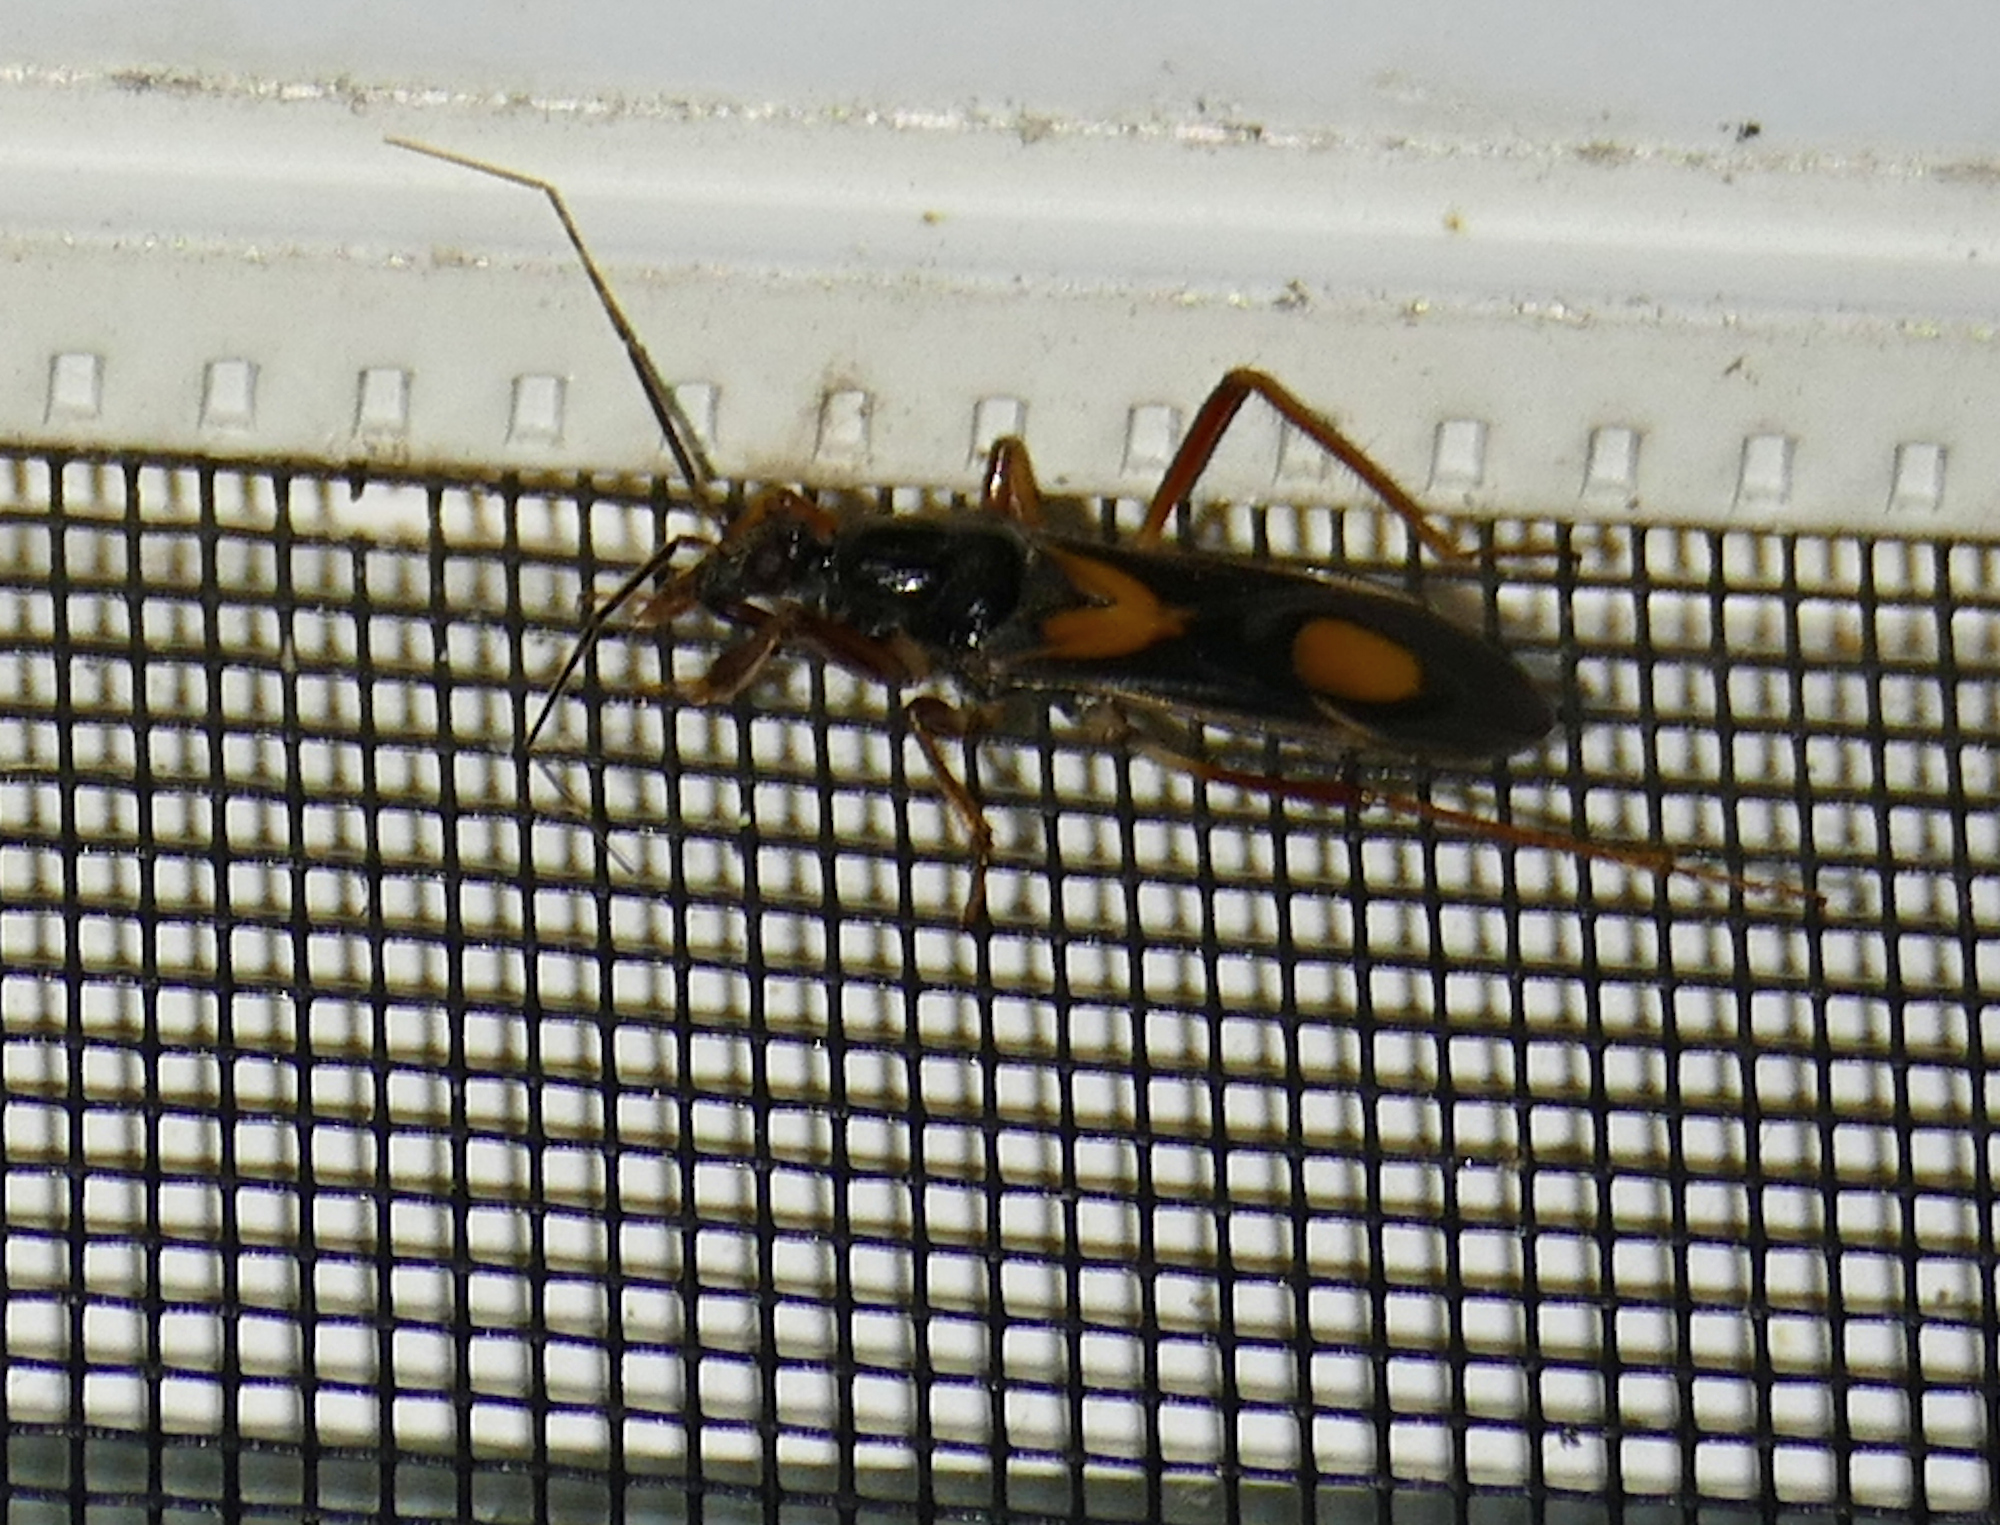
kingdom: Animalia
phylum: Arthropoda
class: Insecta
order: Hemiptera
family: Reduviidae
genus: Rasahus
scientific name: Rasahus hamatus
